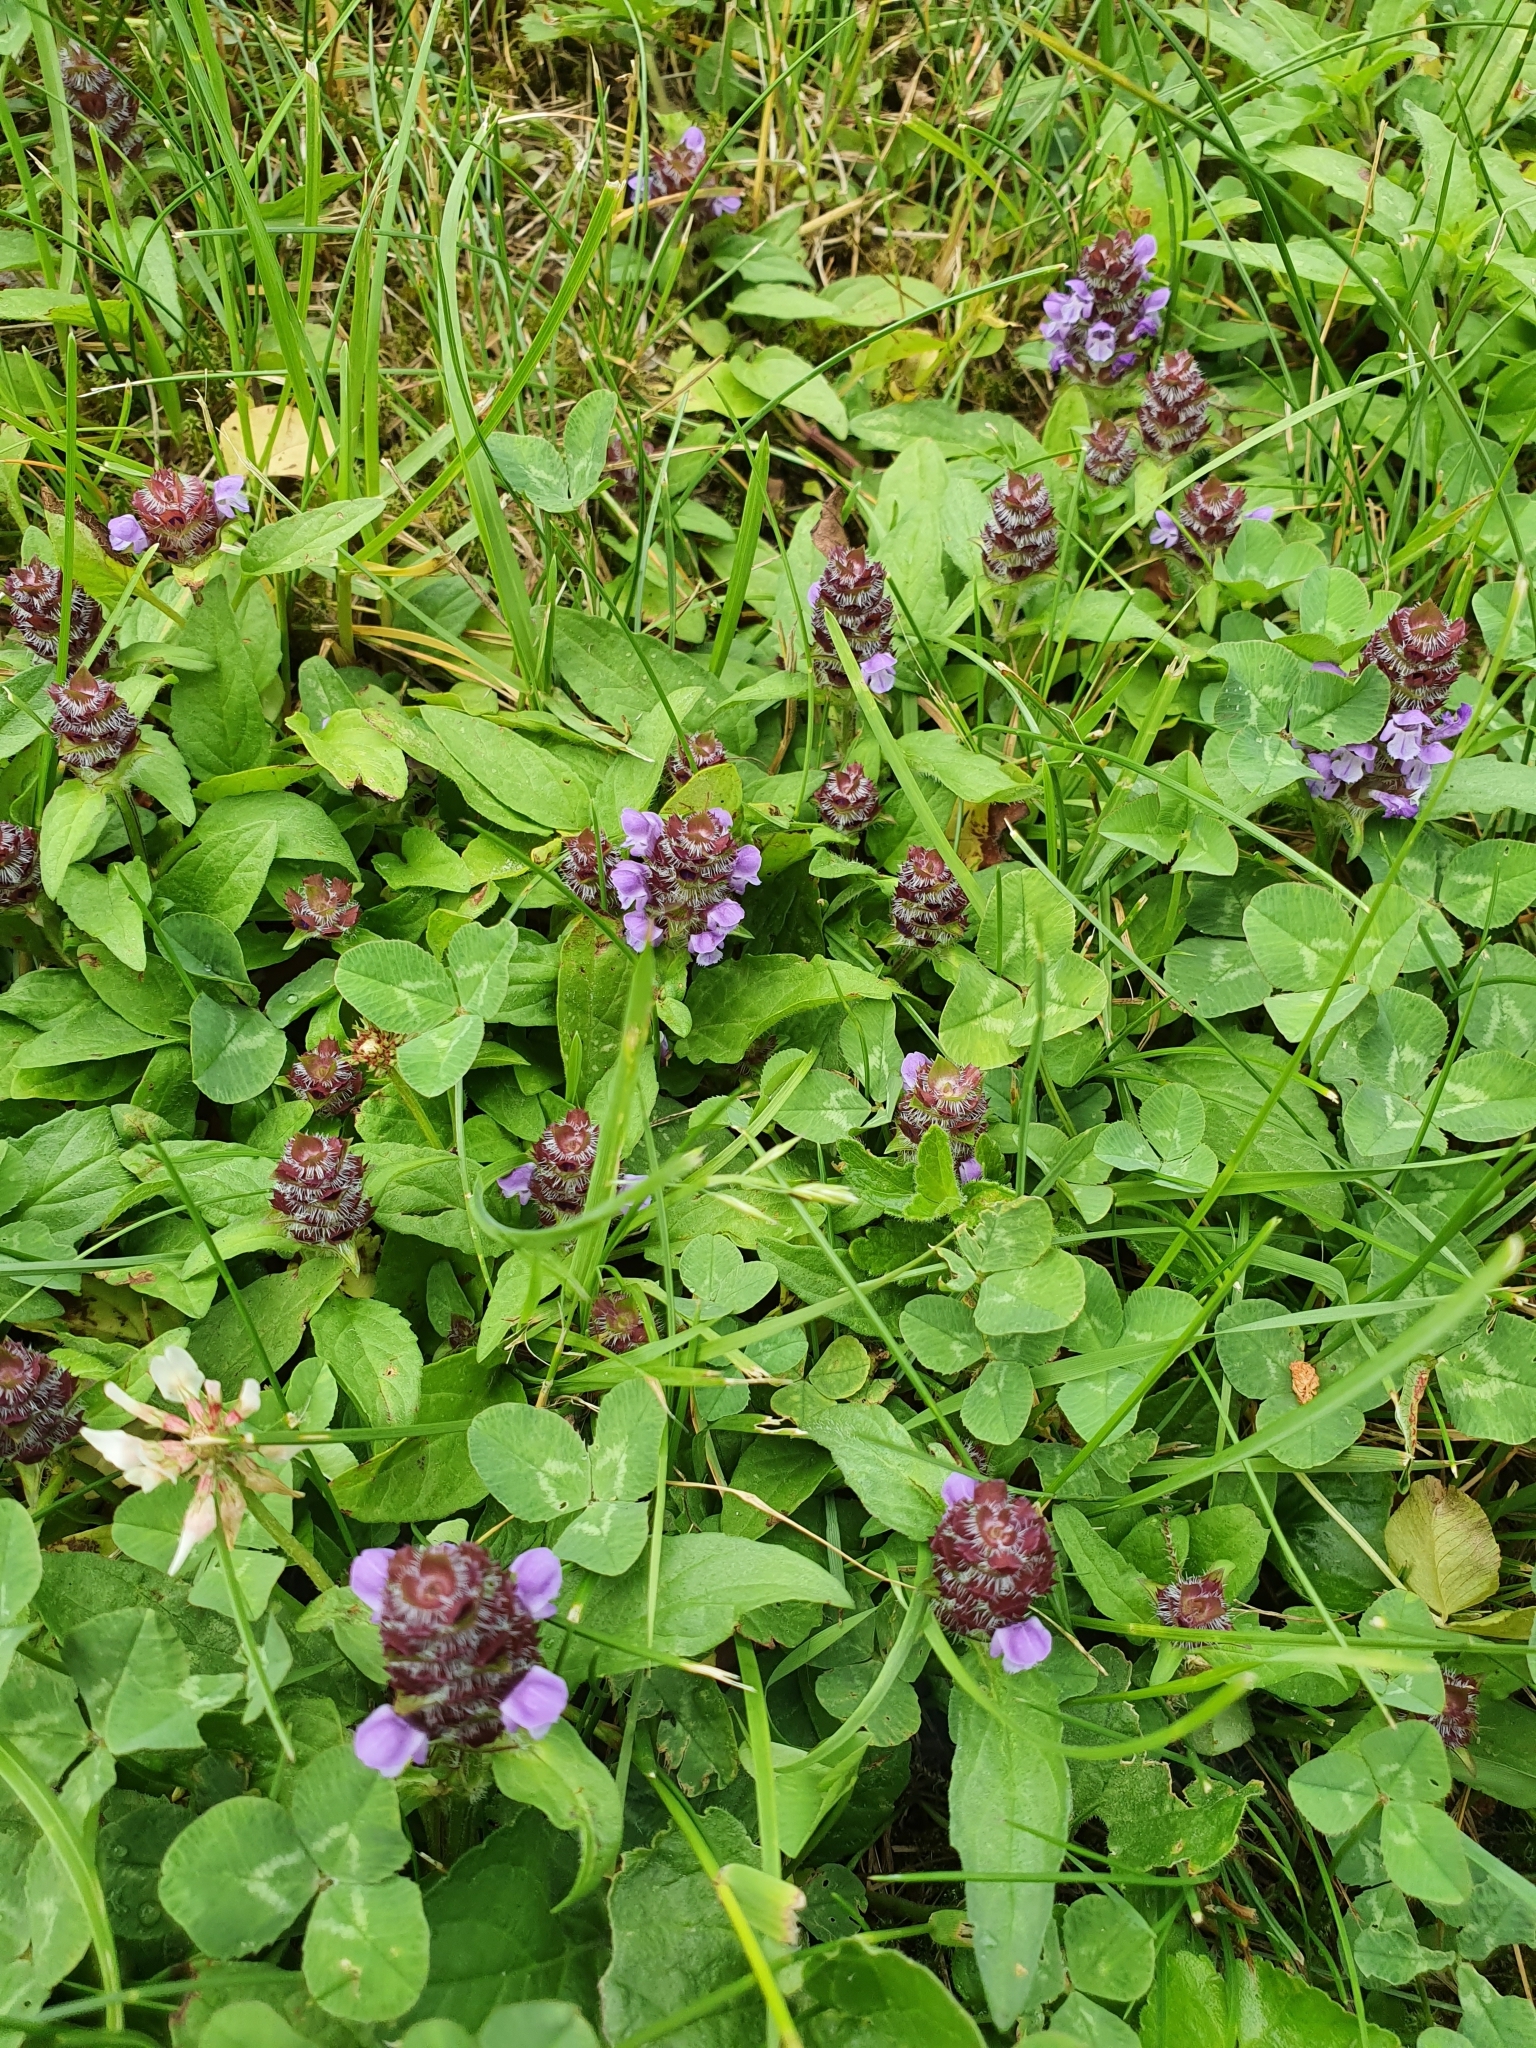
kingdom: Plantae
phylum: Tracheophyta
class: Magnoliopsida
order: Lamiales
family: Lamiaceae
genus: Prunella
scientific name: Prunella vulgaris
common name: Heal-all
